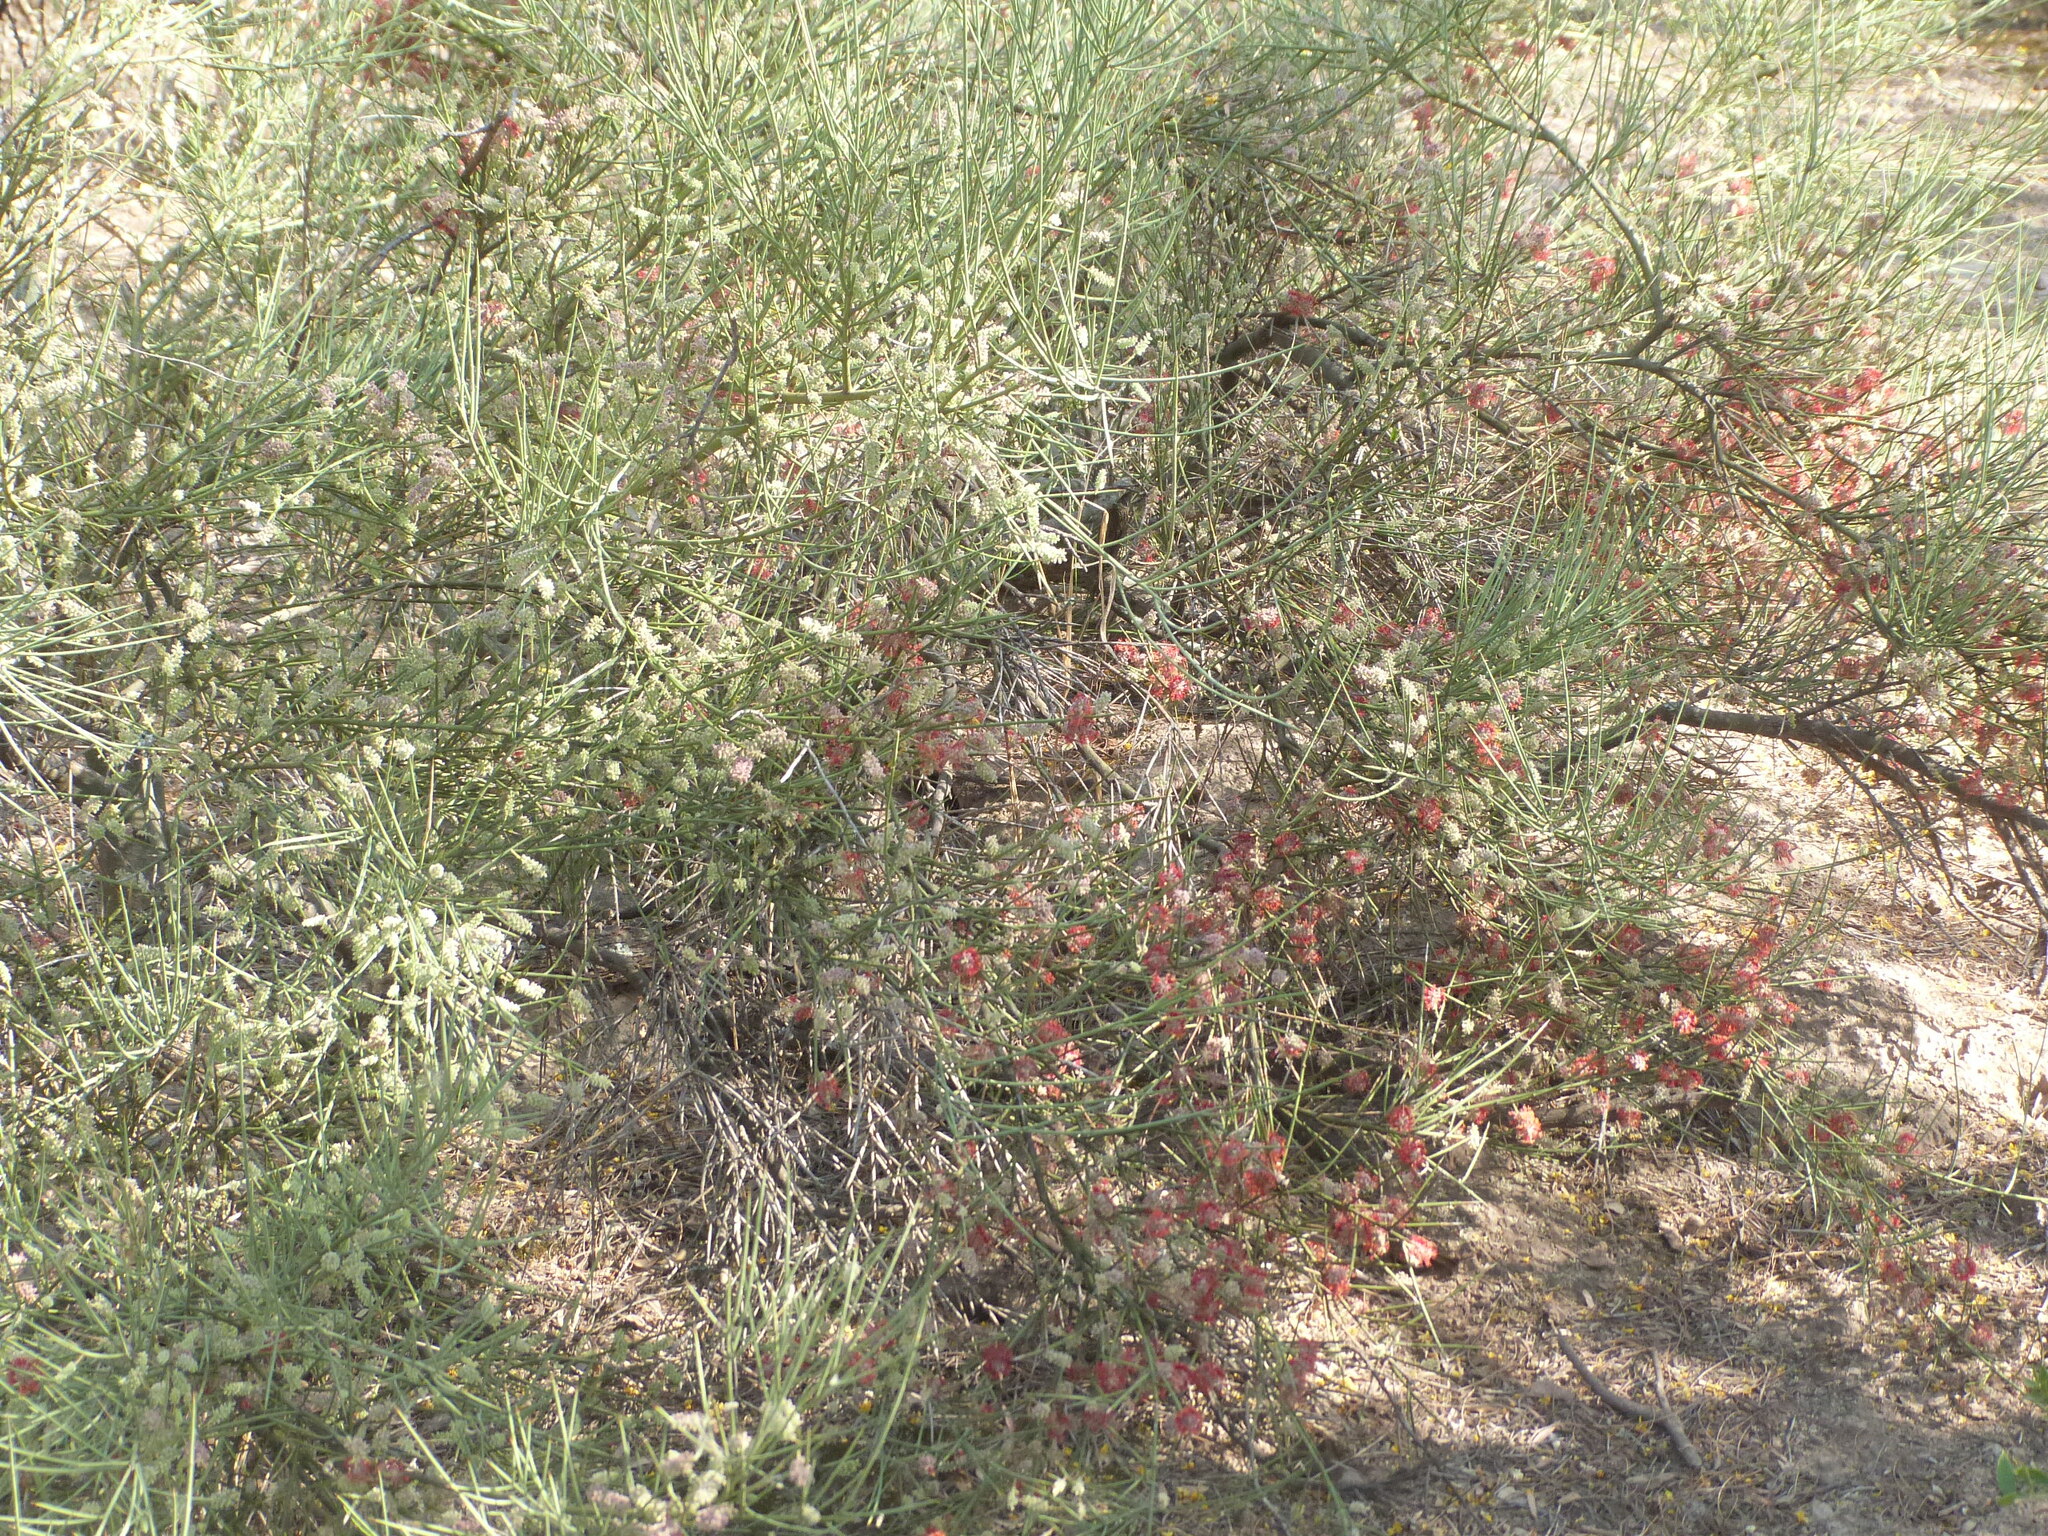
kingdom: Plantae
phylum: Tracheophyta
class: Magnoliopsida
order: Fabales
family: Fabaceae
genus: Prosopis
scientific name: Prosopis sericantha
